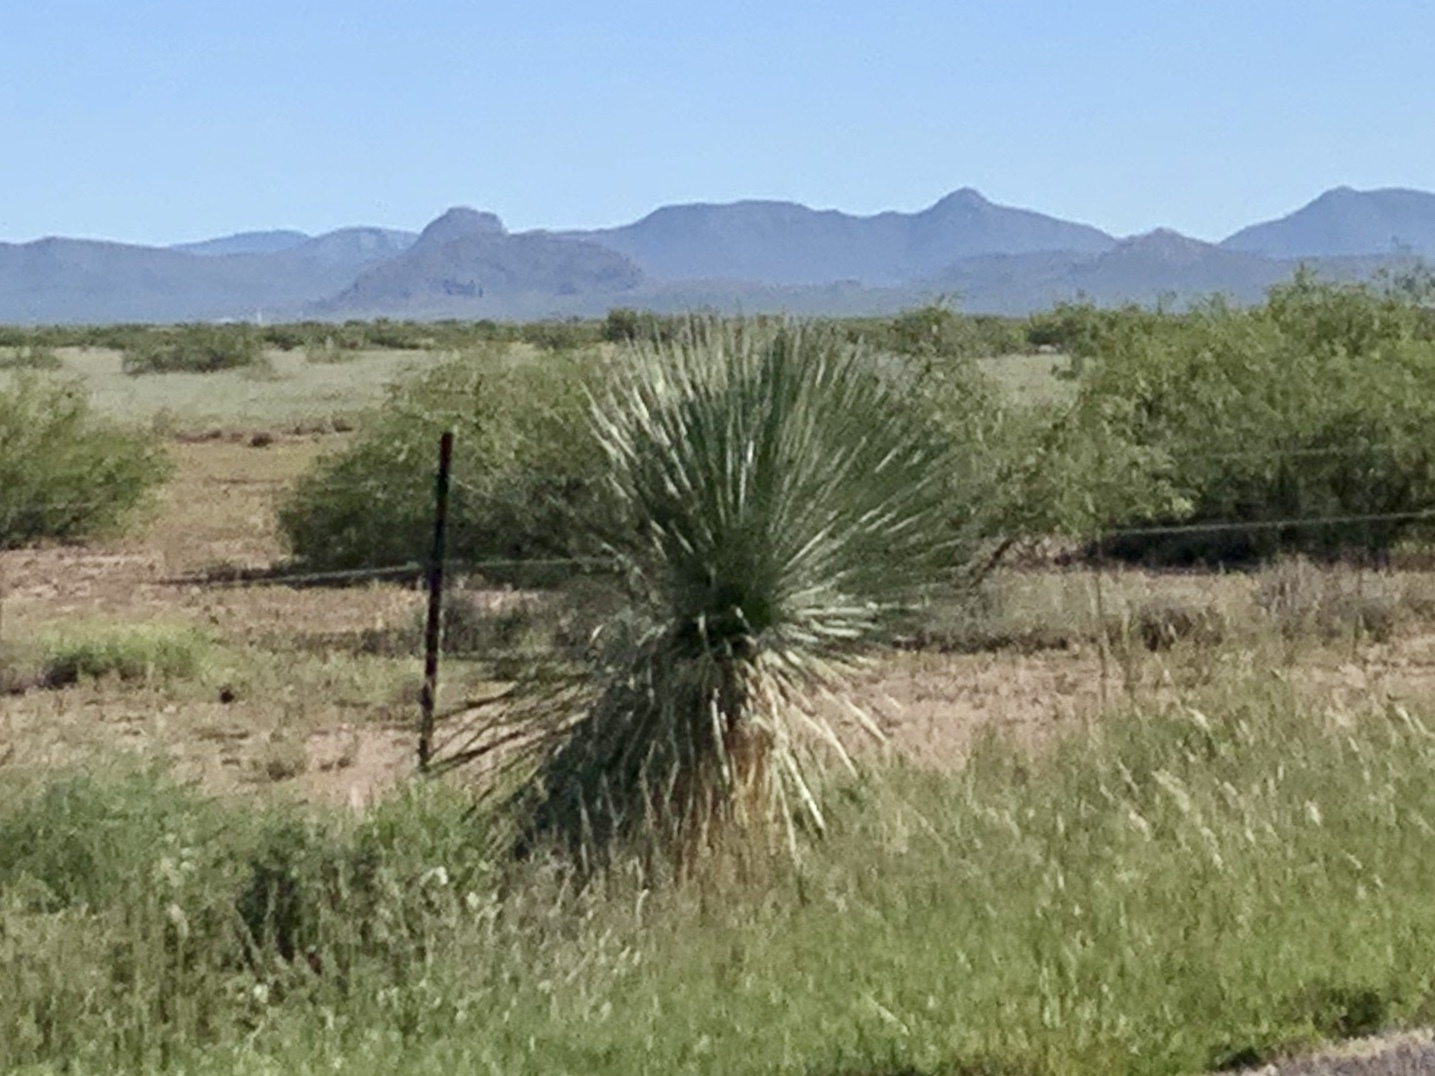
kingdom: Plantae
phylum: Tracheophyta
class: Liliopsida
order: Asparagales
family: Asparagaceae
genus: Yucca
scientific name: Yucca elata
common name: Palmella
